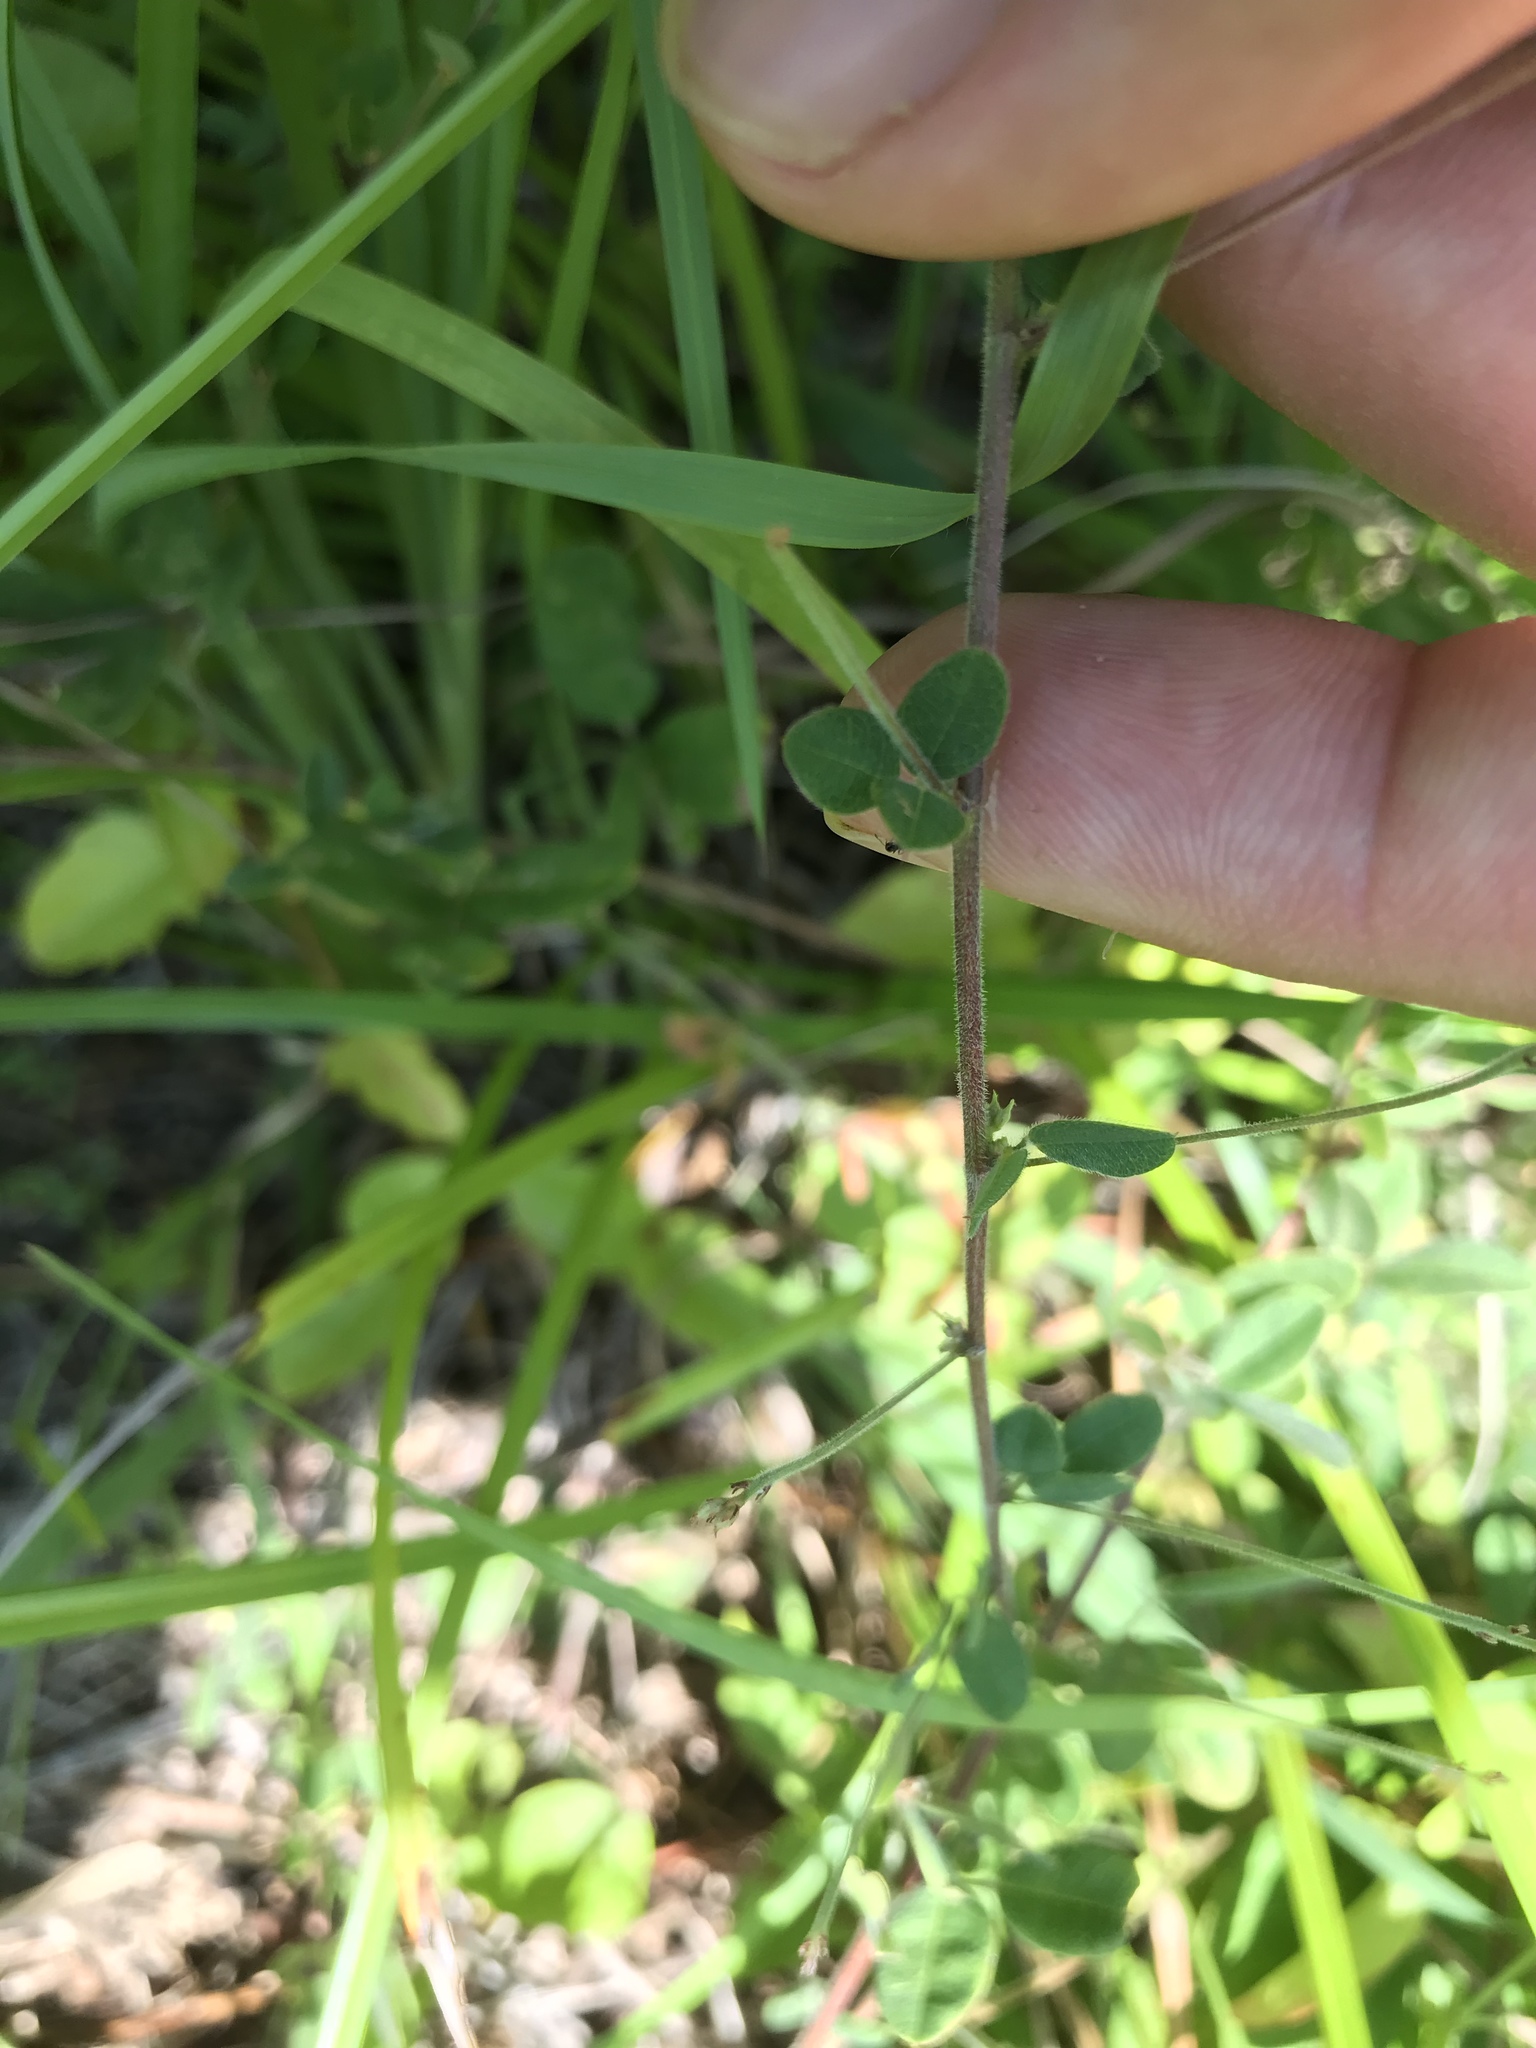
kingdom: Plantae
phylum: Tracheophyta
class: Magnoliopsida
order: Fabales
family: Fabaceae
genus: Lespedeza
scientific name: Lespedeza procumbens
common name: Downy trailing bush-clover
